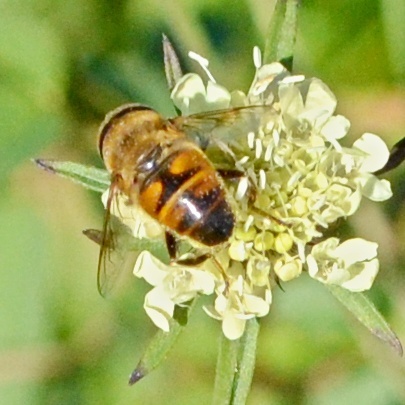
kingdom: Animalia
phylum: Arthropoda
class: Insecta
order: Diptera
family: Syrphidae
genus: Eristalis
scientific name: Eristalis tenax
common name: Drone fly
